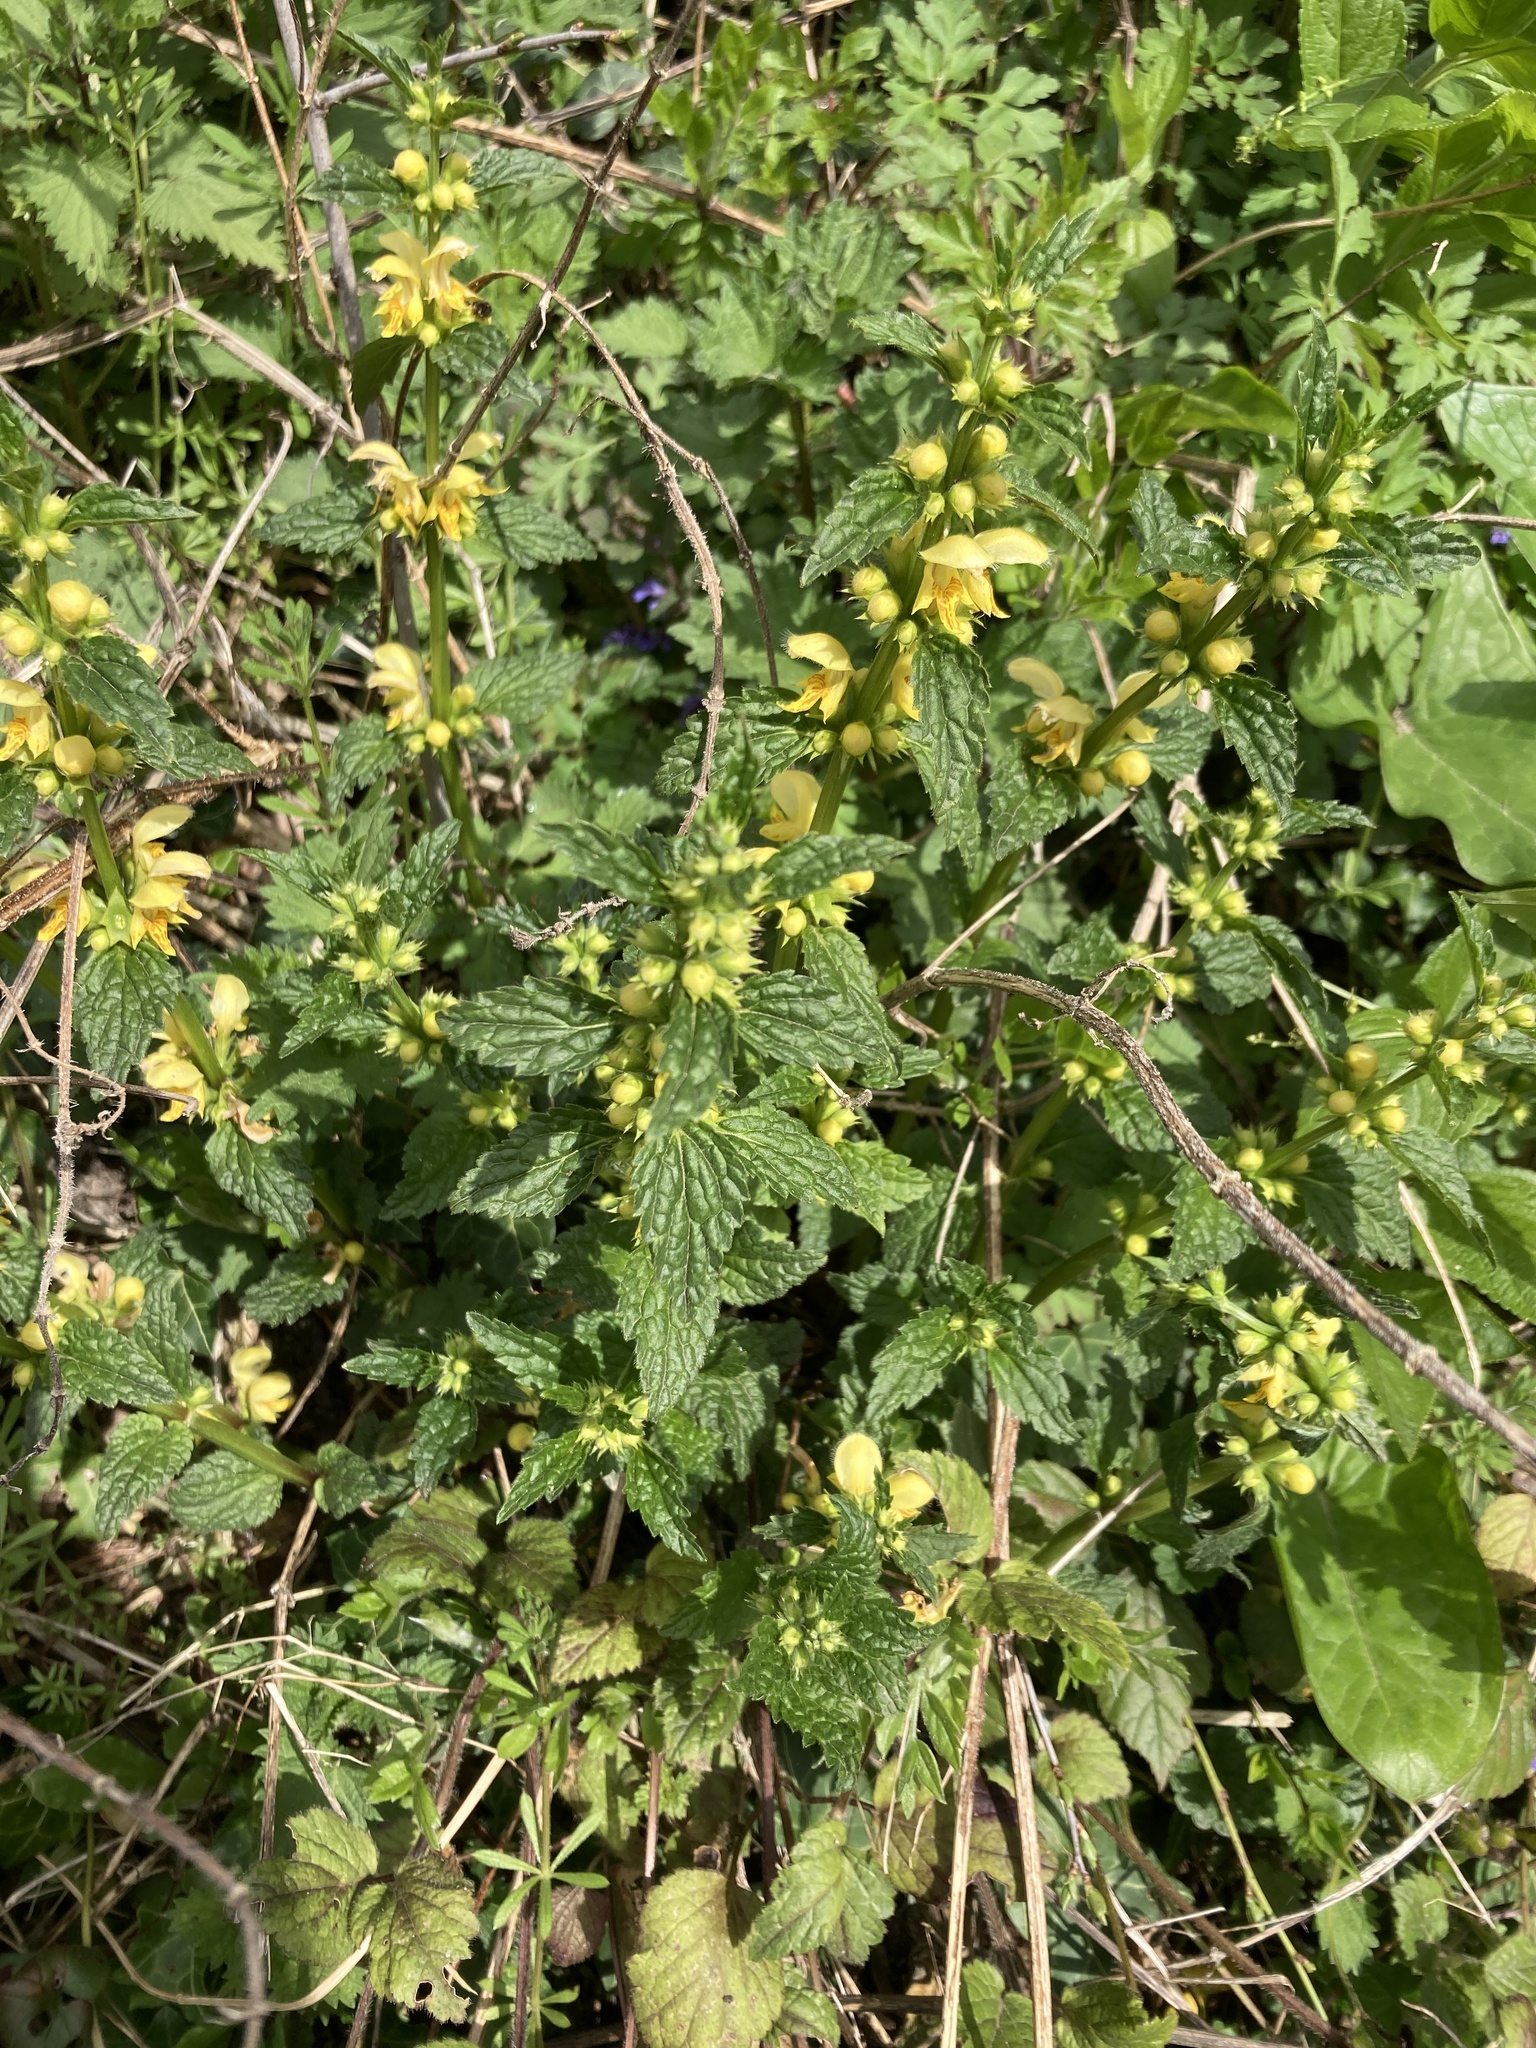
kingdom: Plantae
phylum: Tracheophyta
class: Magnoliopsida
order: Lamiales
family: Lamiaceae
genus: Lamium
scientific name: Lamium galeobdolon
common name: Yellow archangel
